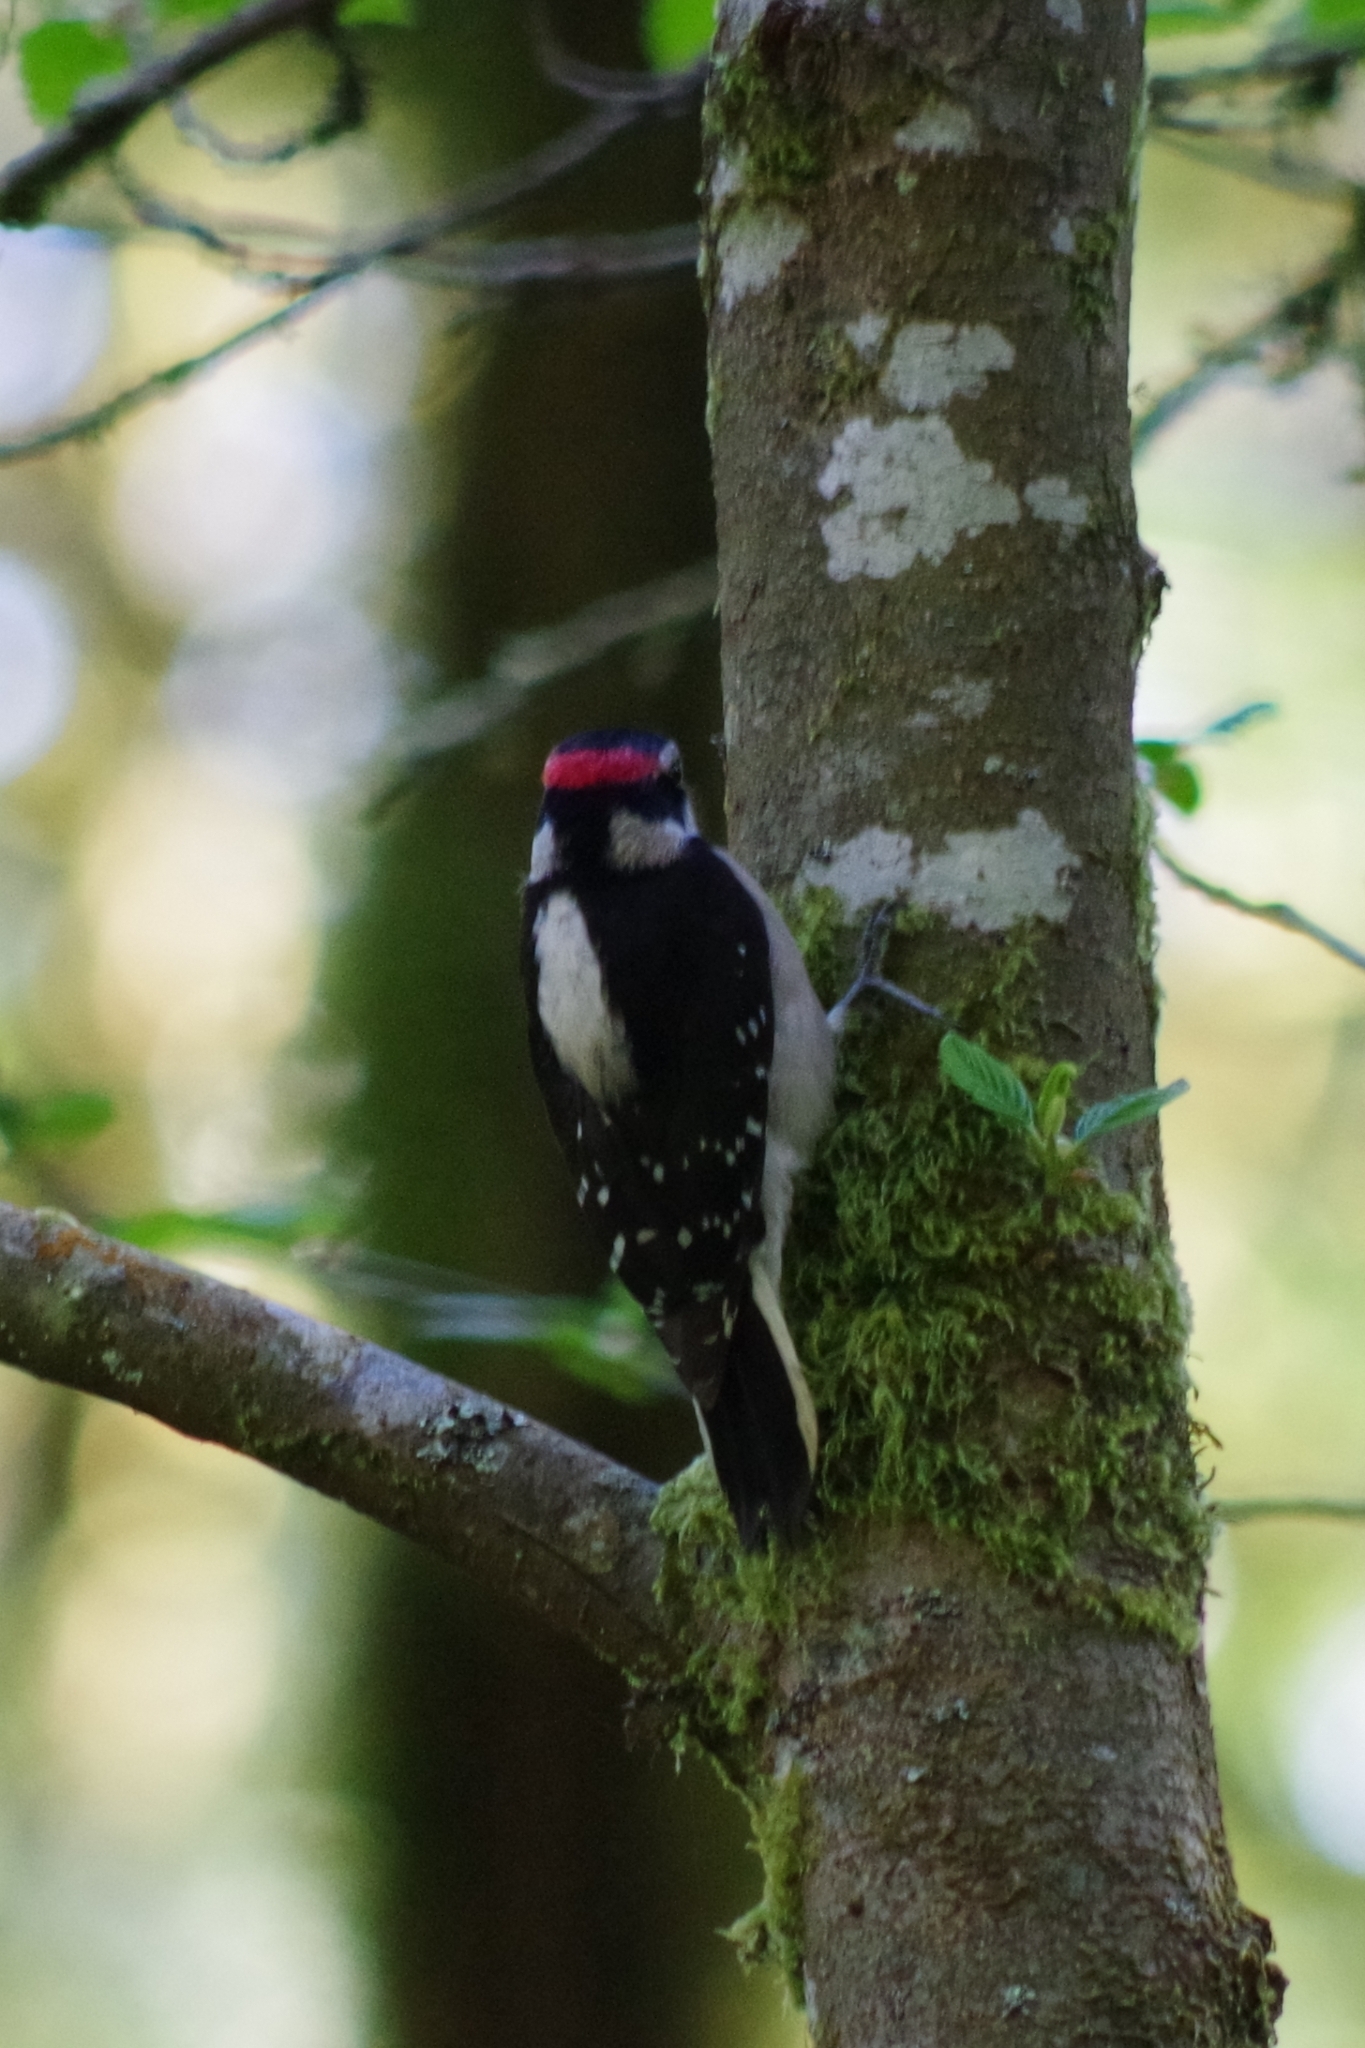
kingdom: Animalia
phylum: Chordata
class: Aves
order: Piciformes
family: Picidae
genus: Dryobates
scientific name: Dryobates pubescens
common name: Downy woodpecker
